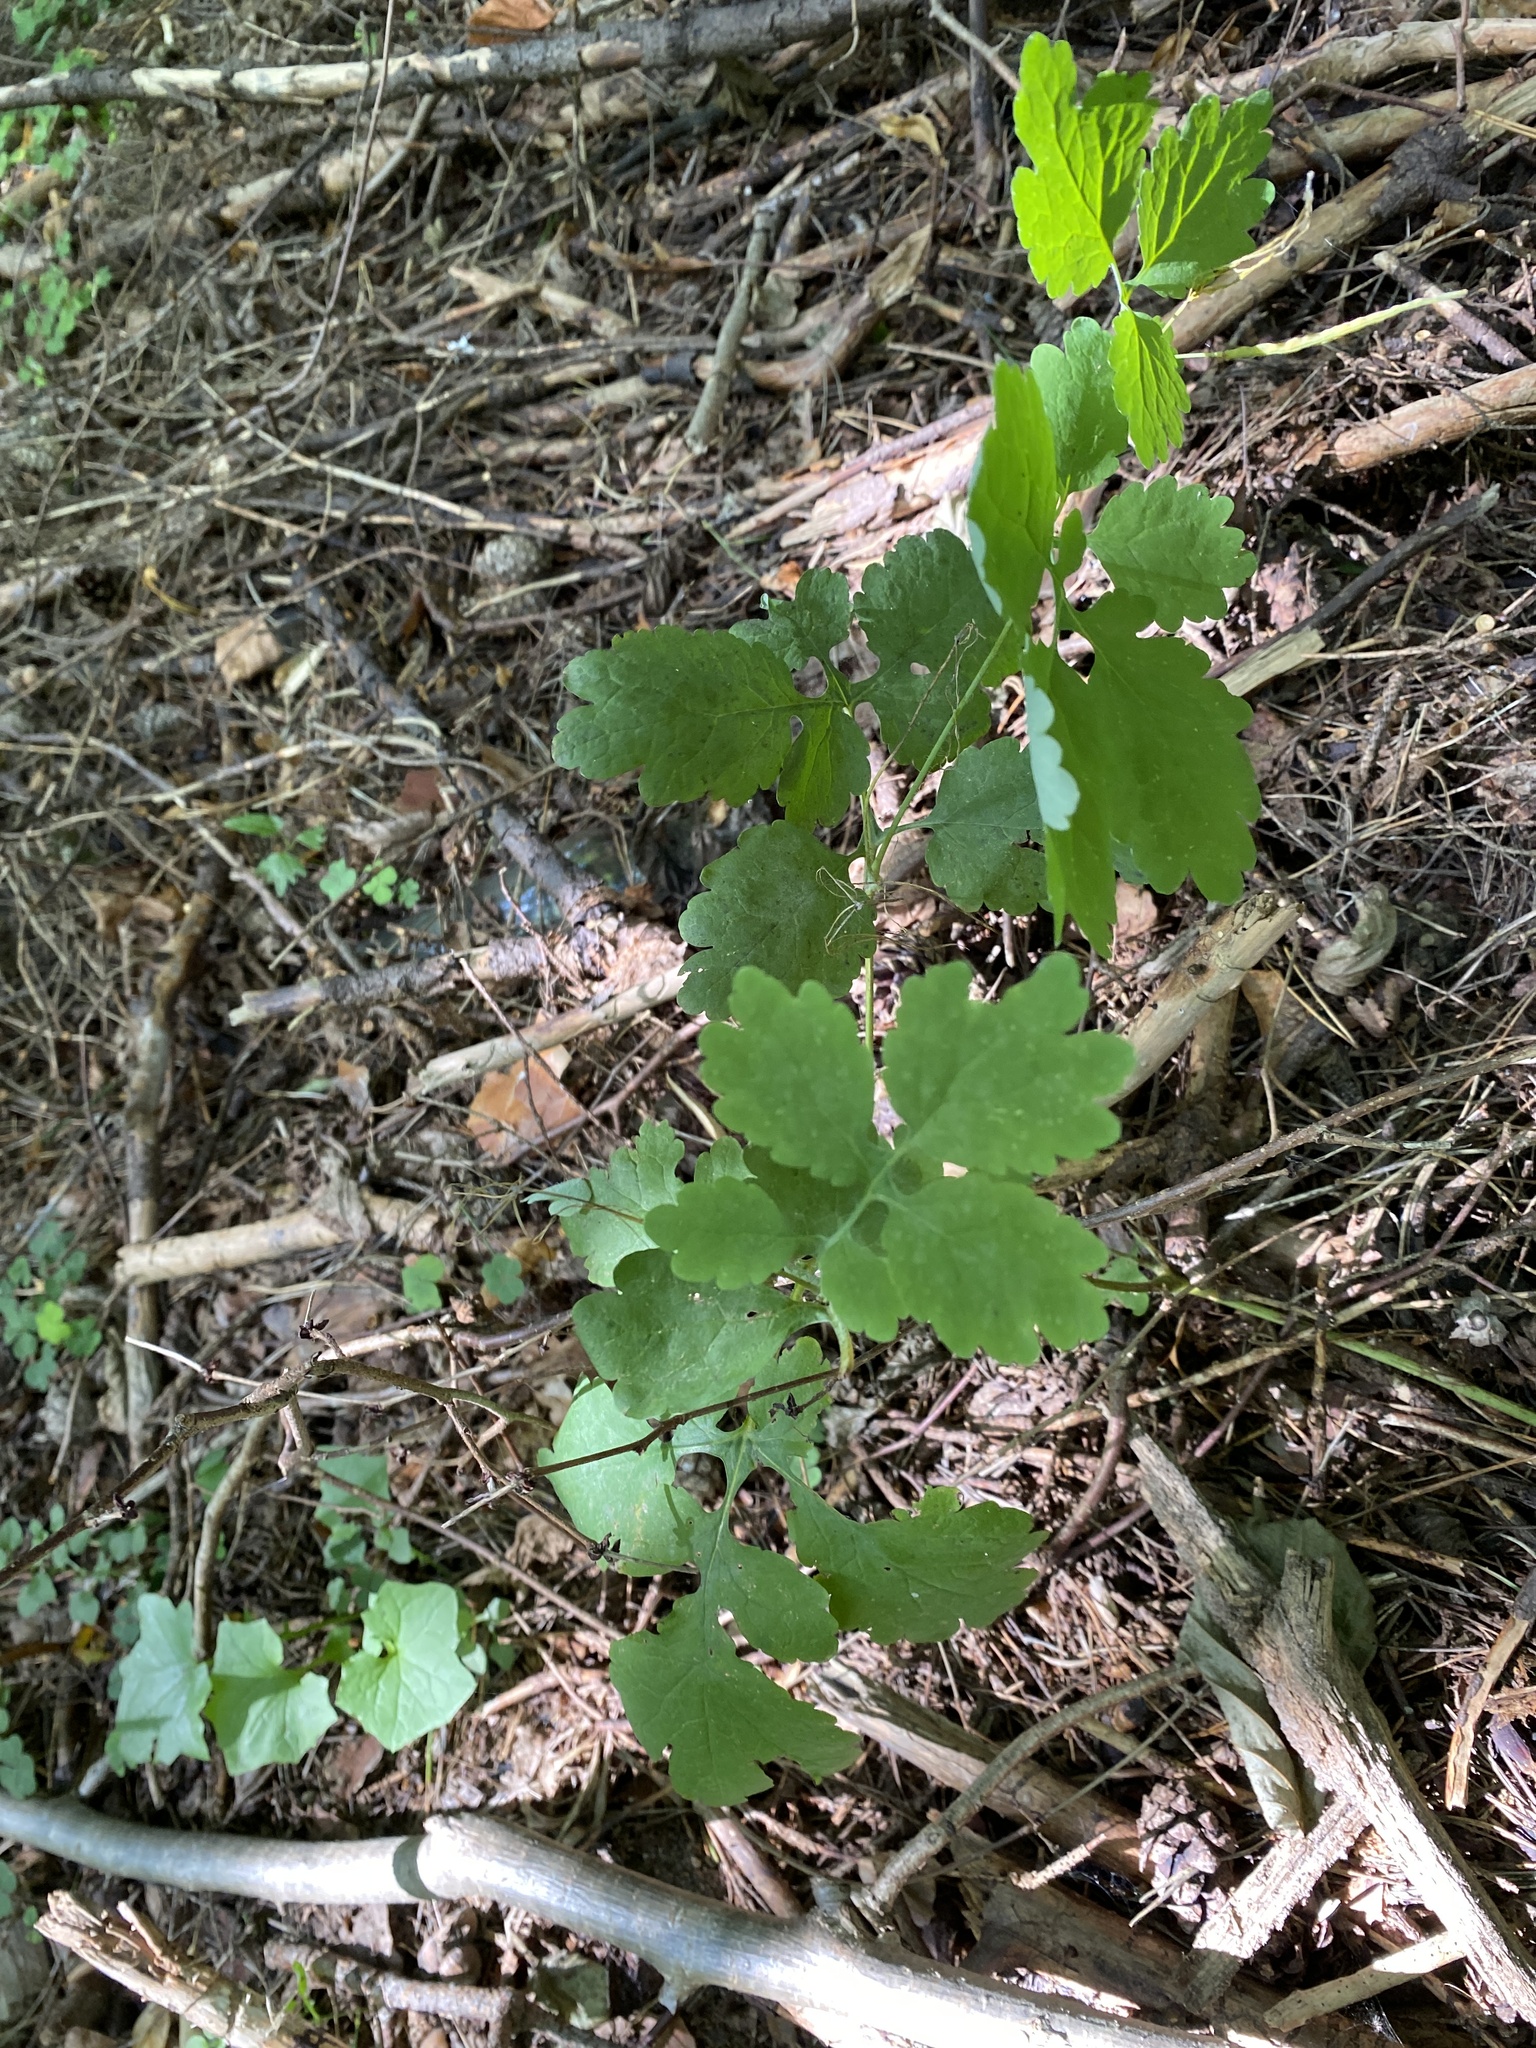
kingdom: Plantae
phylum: Tracheophyta
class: Magnoliopsida
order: Ranunculales
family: Papaveraceae
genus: Chelidonium
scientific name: Chelidonium majus
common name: Greater celandine
